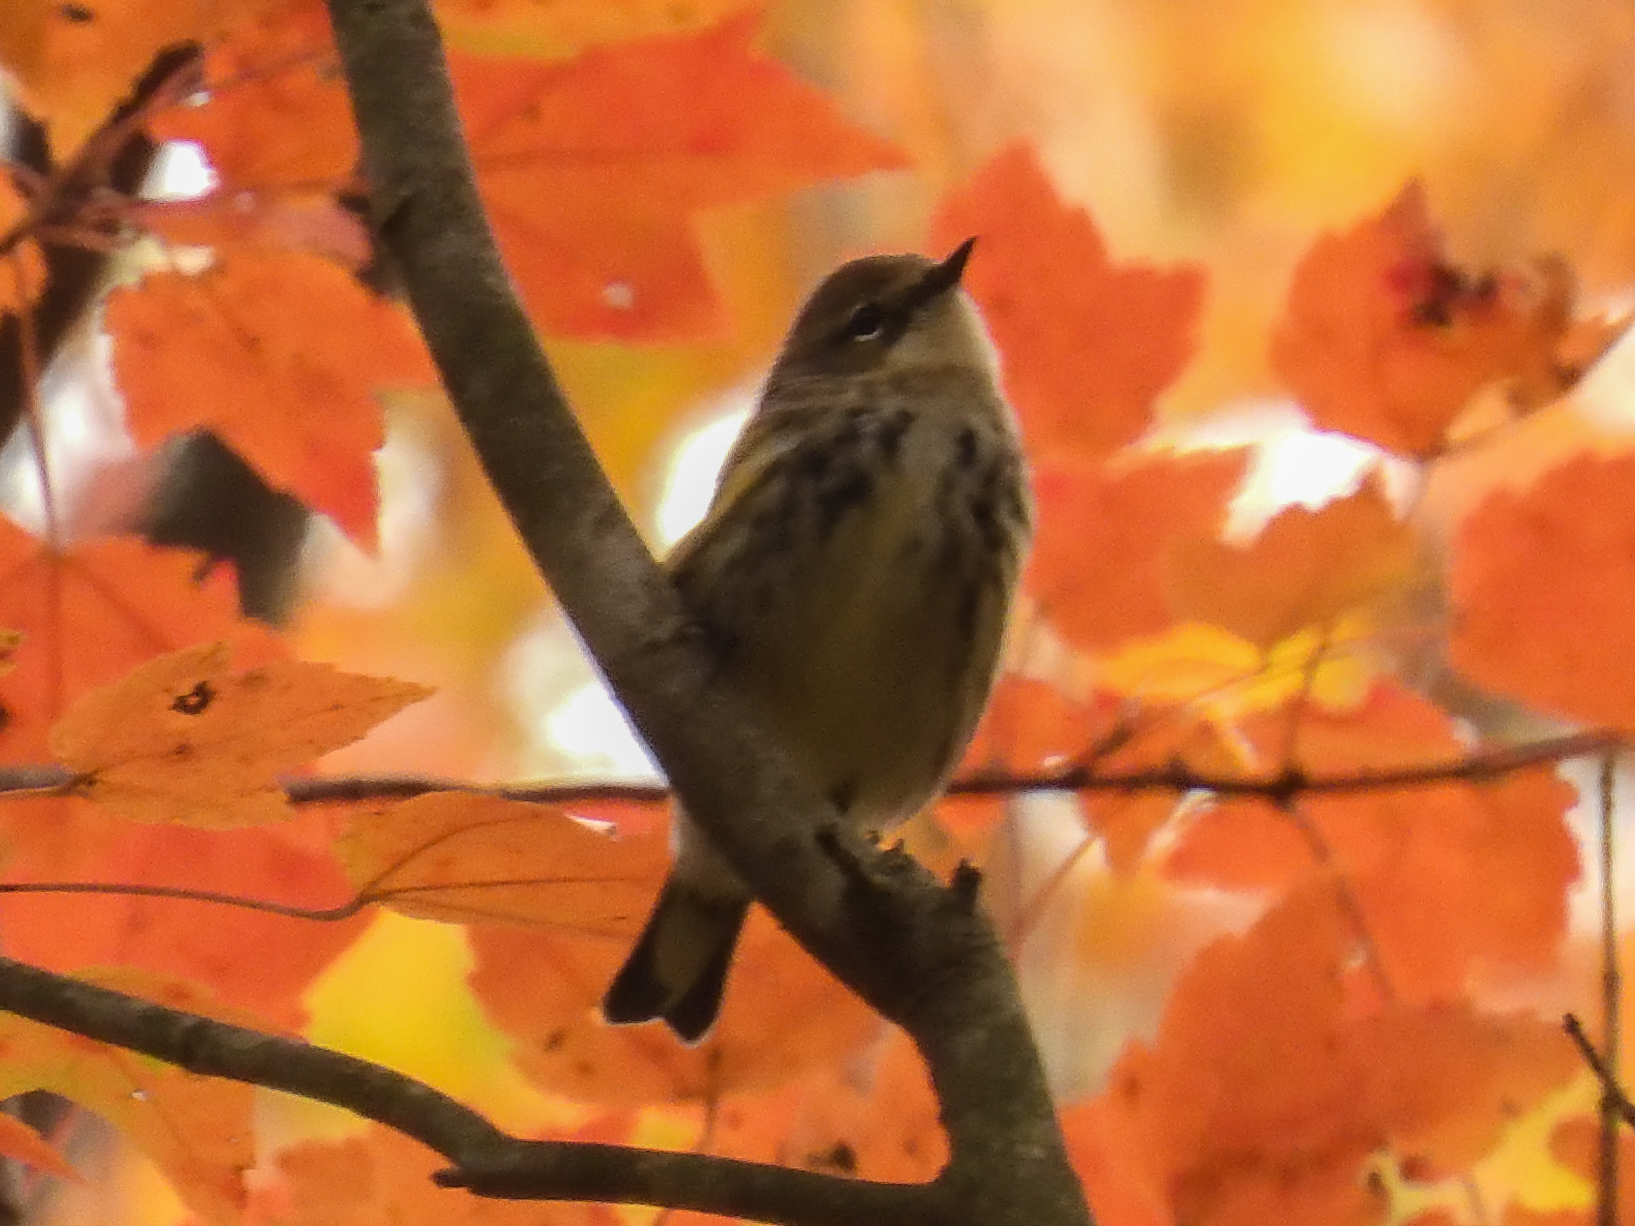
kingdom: Animalia
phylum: Chordata
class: Aves
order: Passeriformes
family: Parulidae
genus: Setophaga
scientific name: Setophaga coronata
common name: Myrtle warbler
